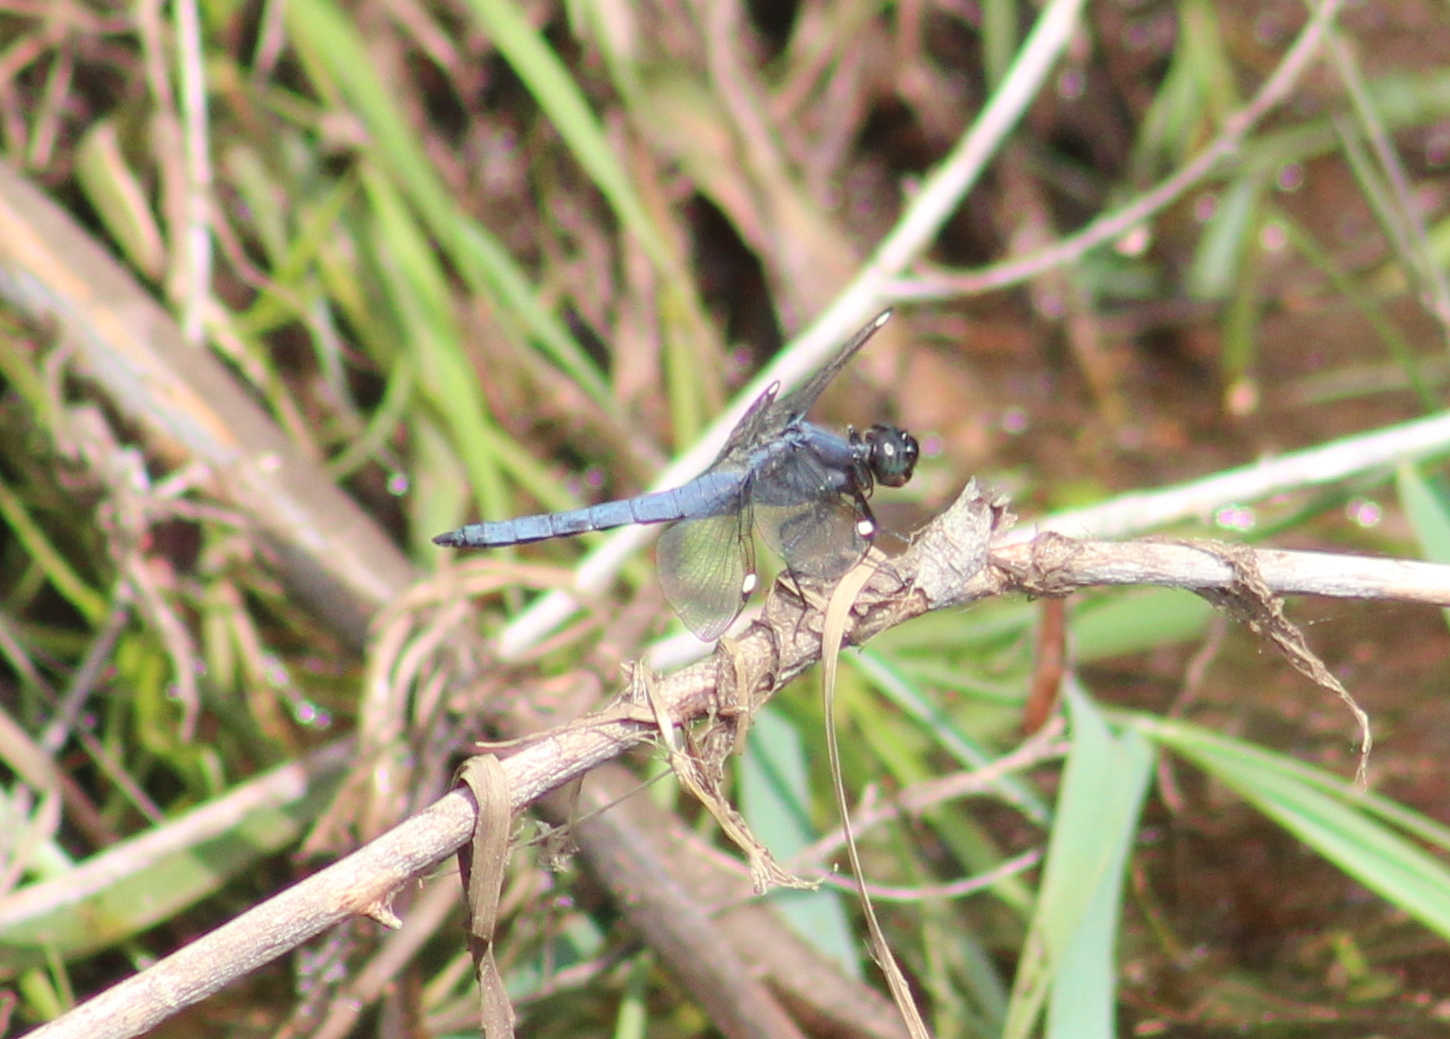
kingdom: Animalia
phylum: Arthropoda
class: Insecta
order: Odonata
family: Libellulidae
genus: Libellula
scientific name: Libellula cyanea
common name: Spangled skimmer
